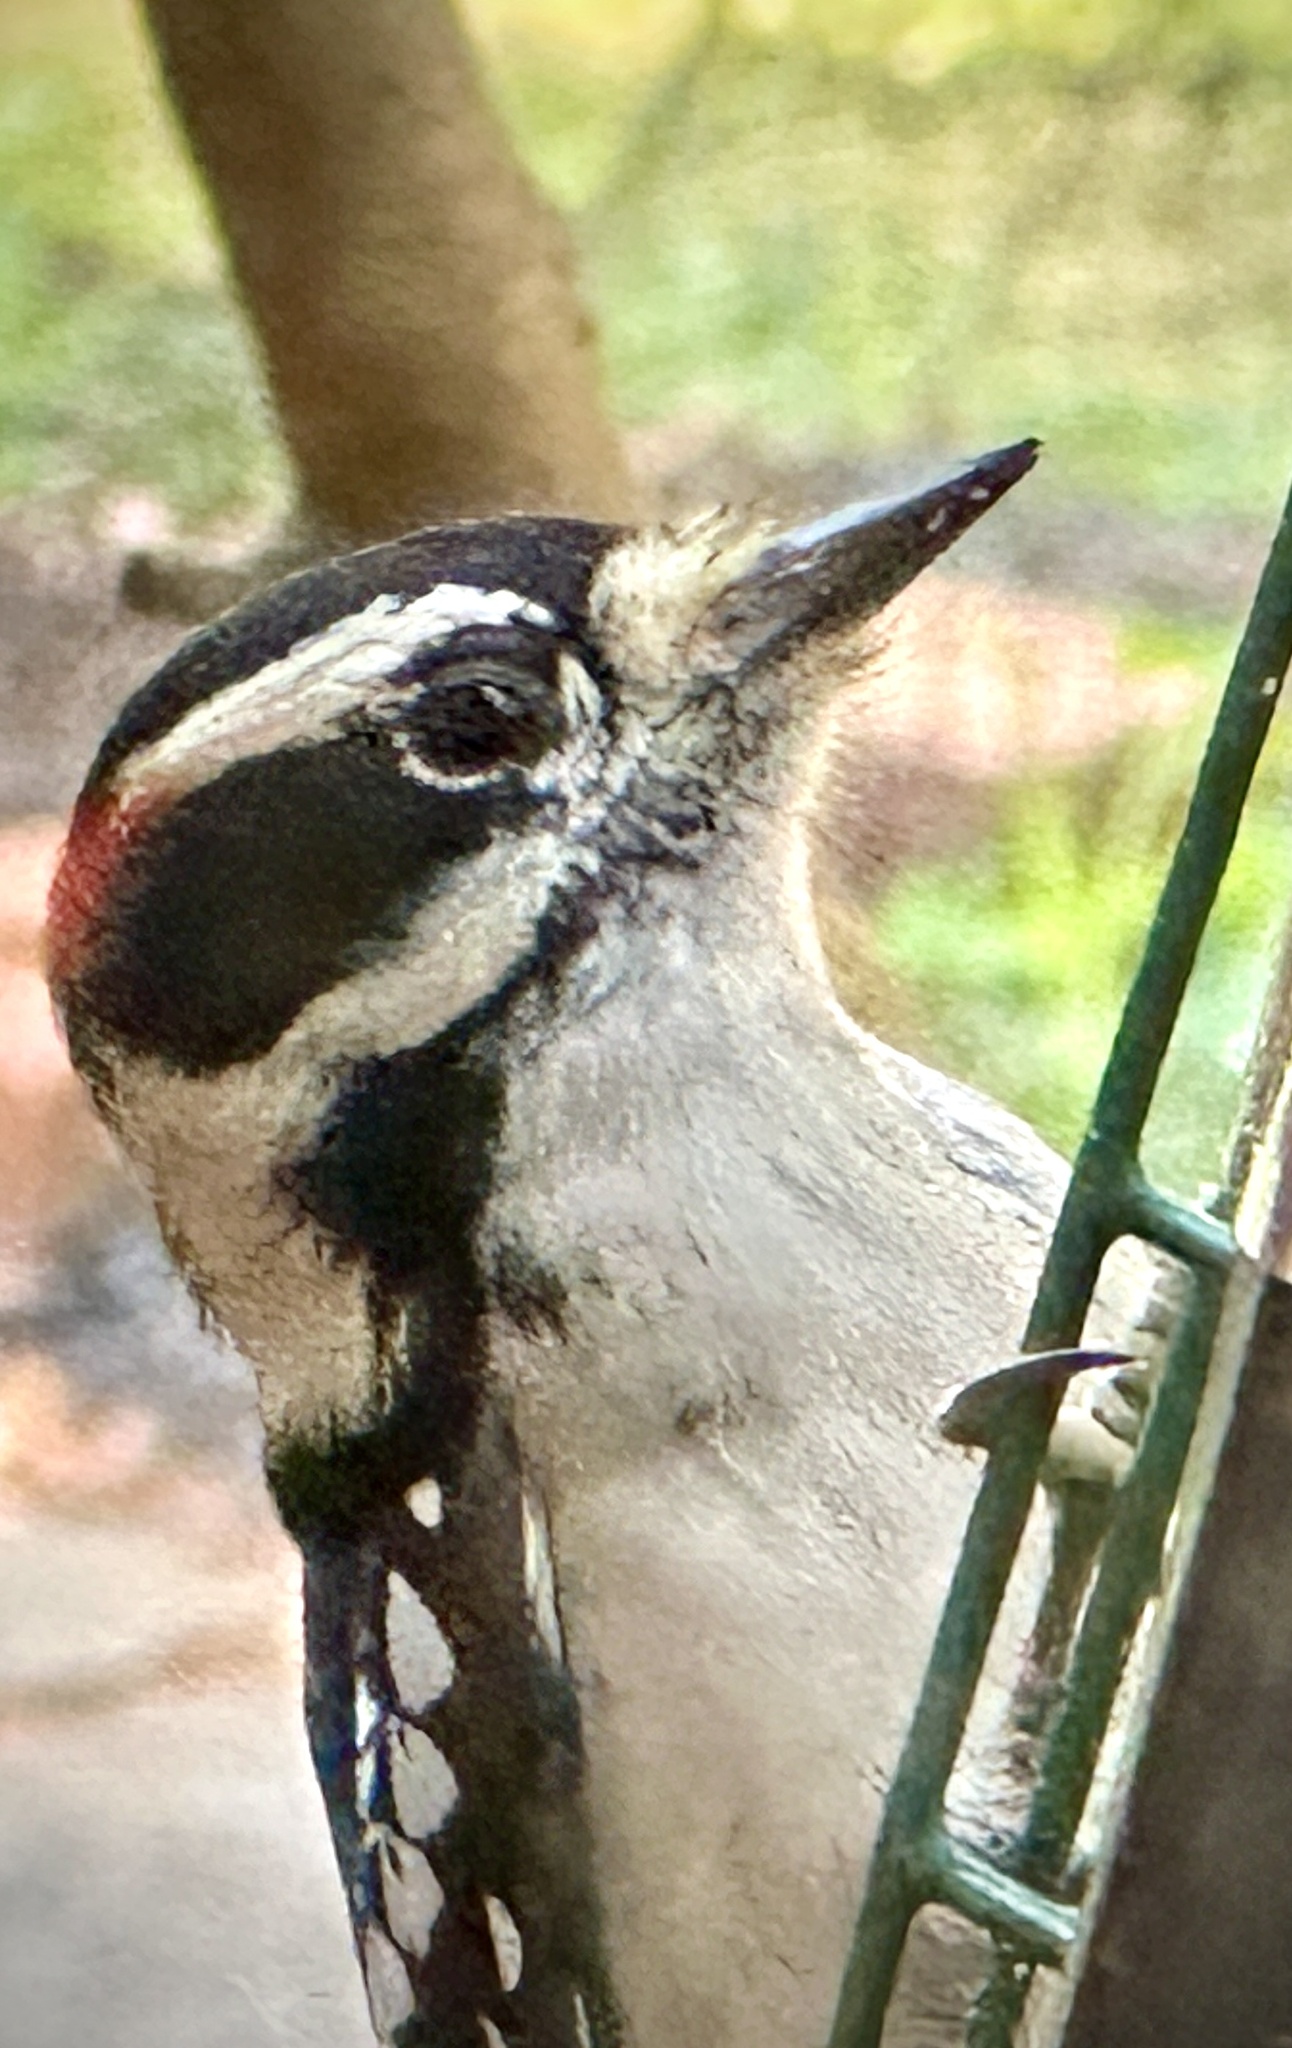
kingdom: Animalia
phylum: Chordata
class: Aves
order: Piciformes
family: Picidae
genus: Dryobates
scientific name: Dryobates pubescens
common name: Downy woodpecker
